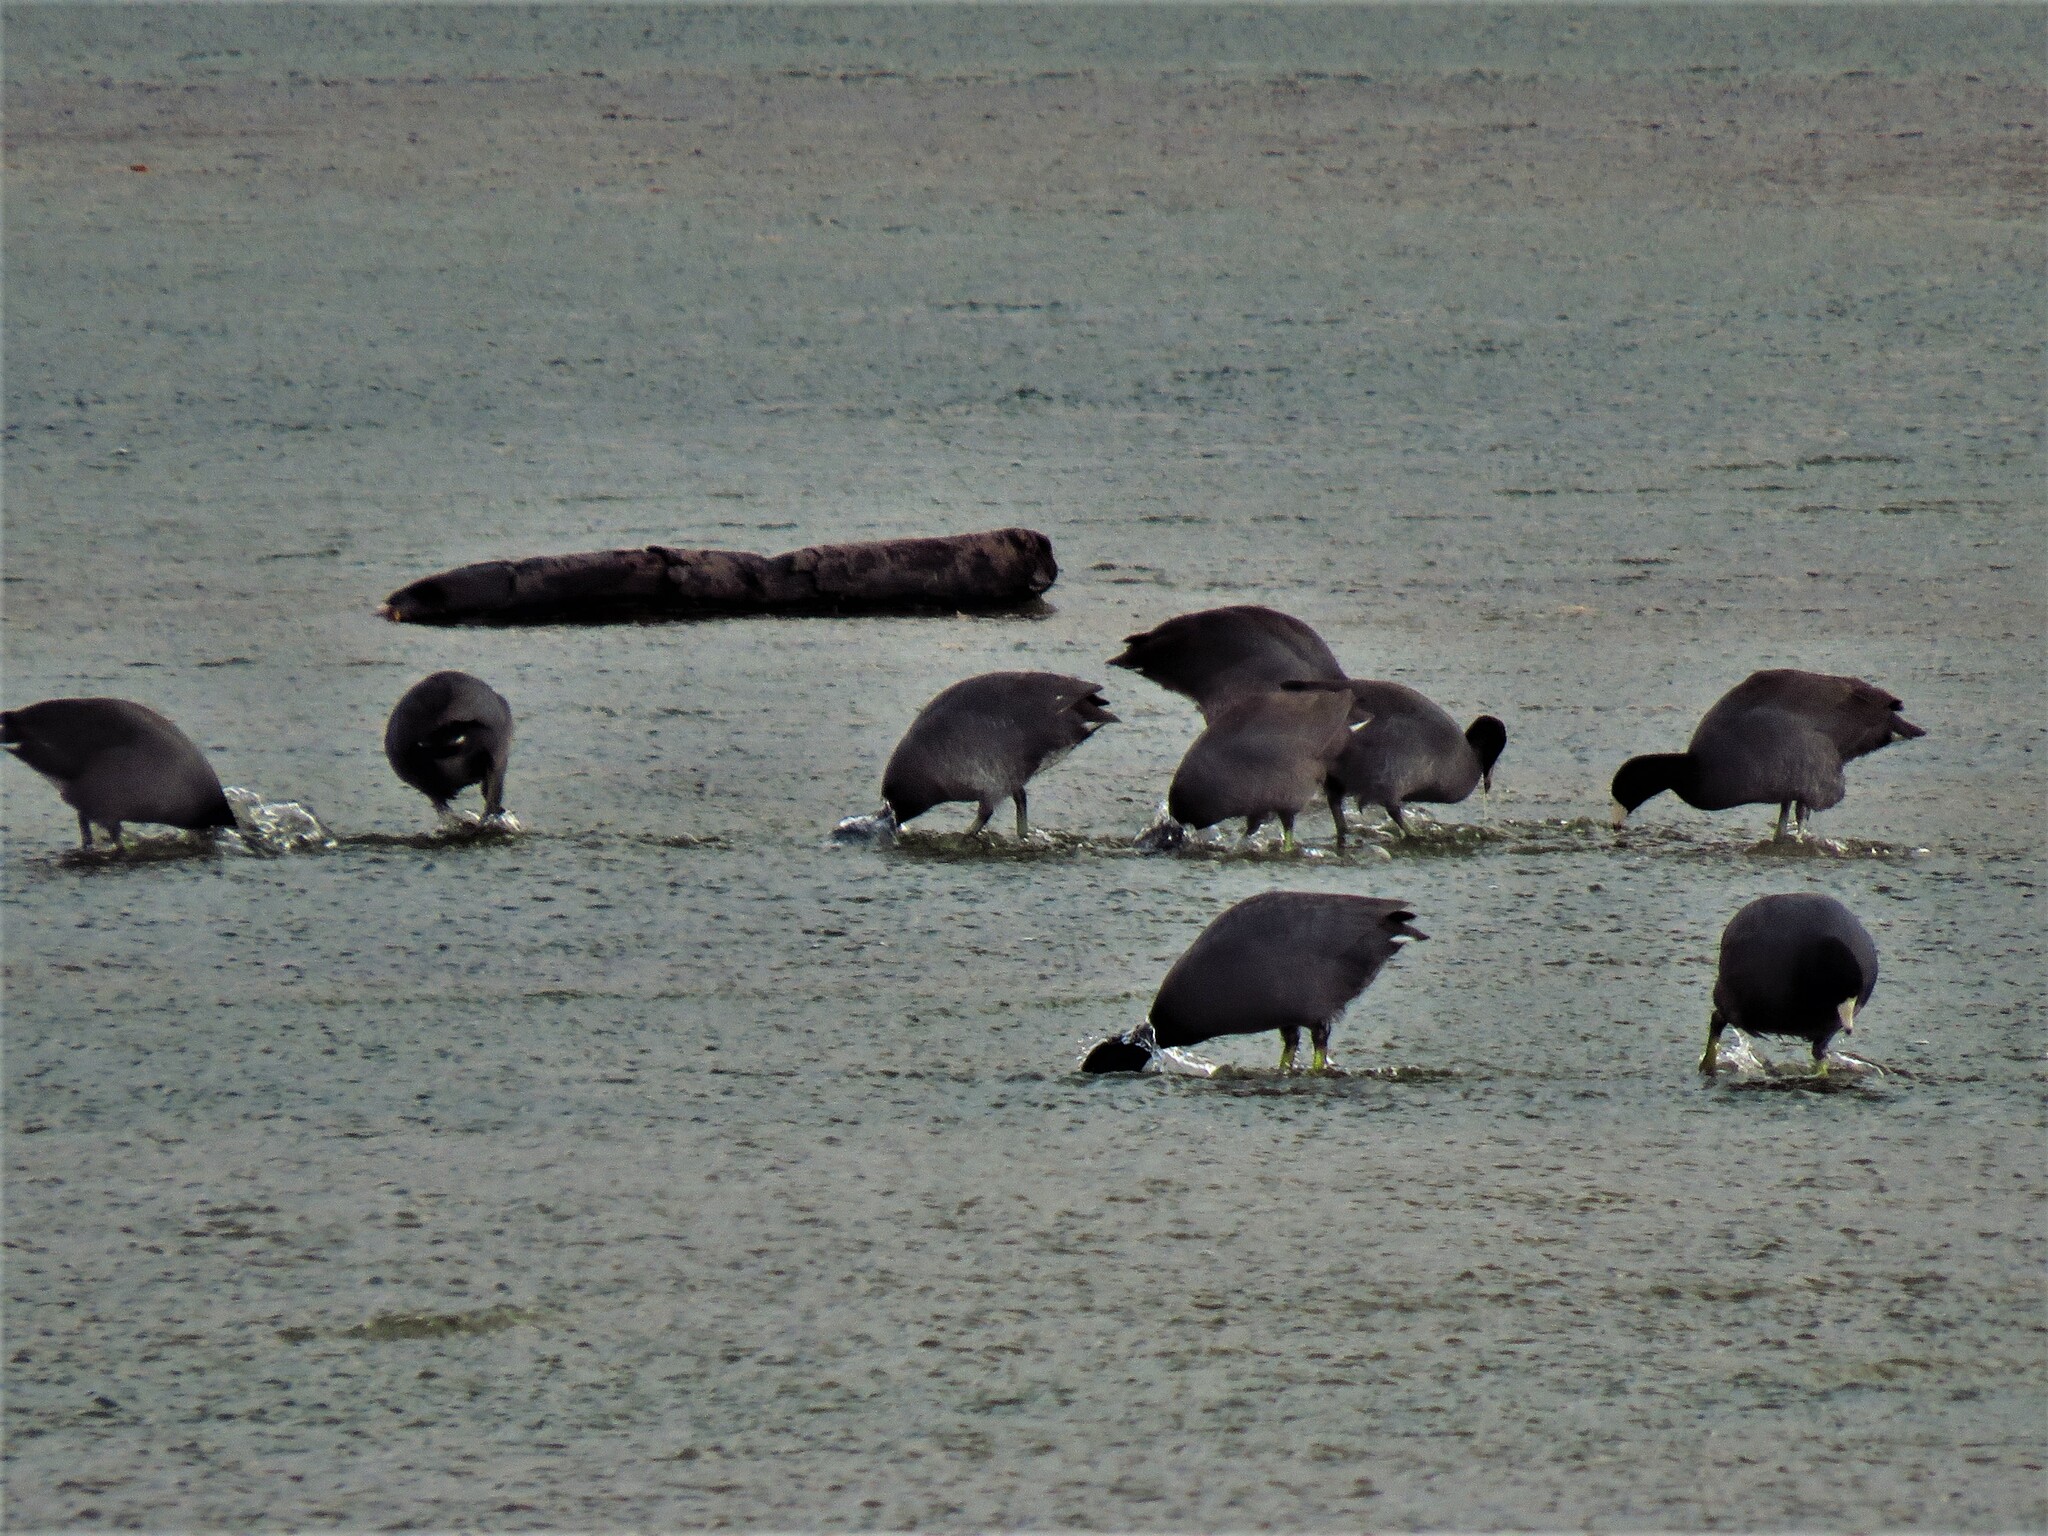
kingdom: Animalia
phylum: Chordata
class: Aves
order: Gruiformes
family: Rallidae
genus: Fulica
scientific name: Fulica americana
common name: American coot
